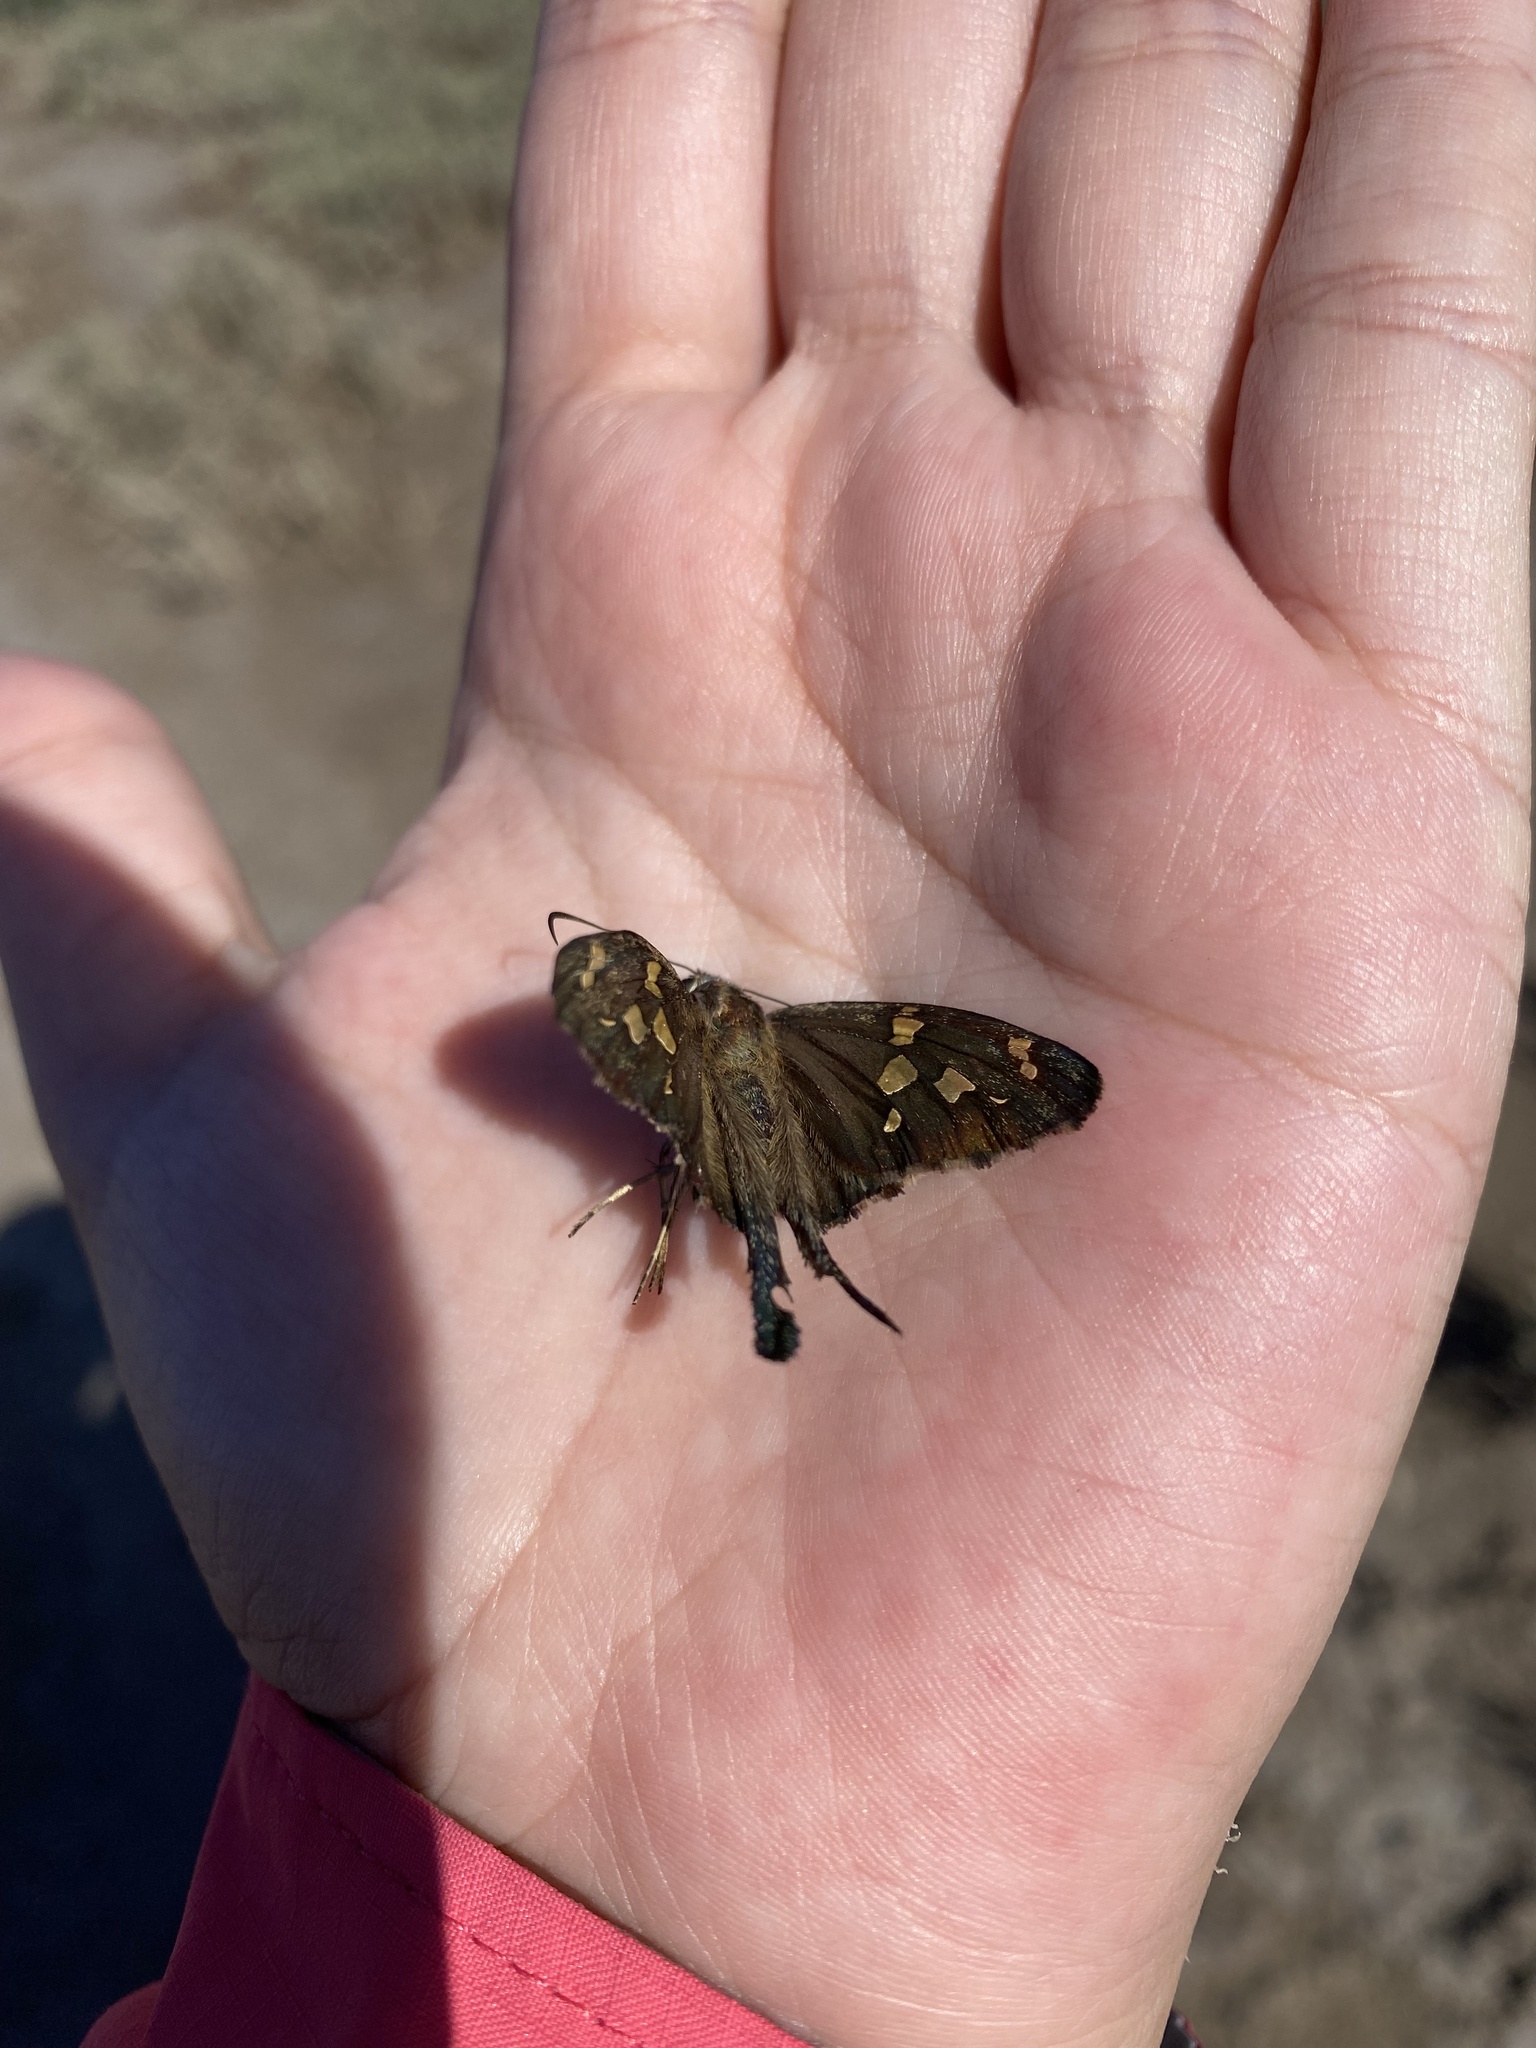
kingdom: Animalia
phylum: Arthropoda
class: Insecta
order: Lepidoptera
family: Hesperiidae
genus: Thorybes
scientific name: Thorybes
